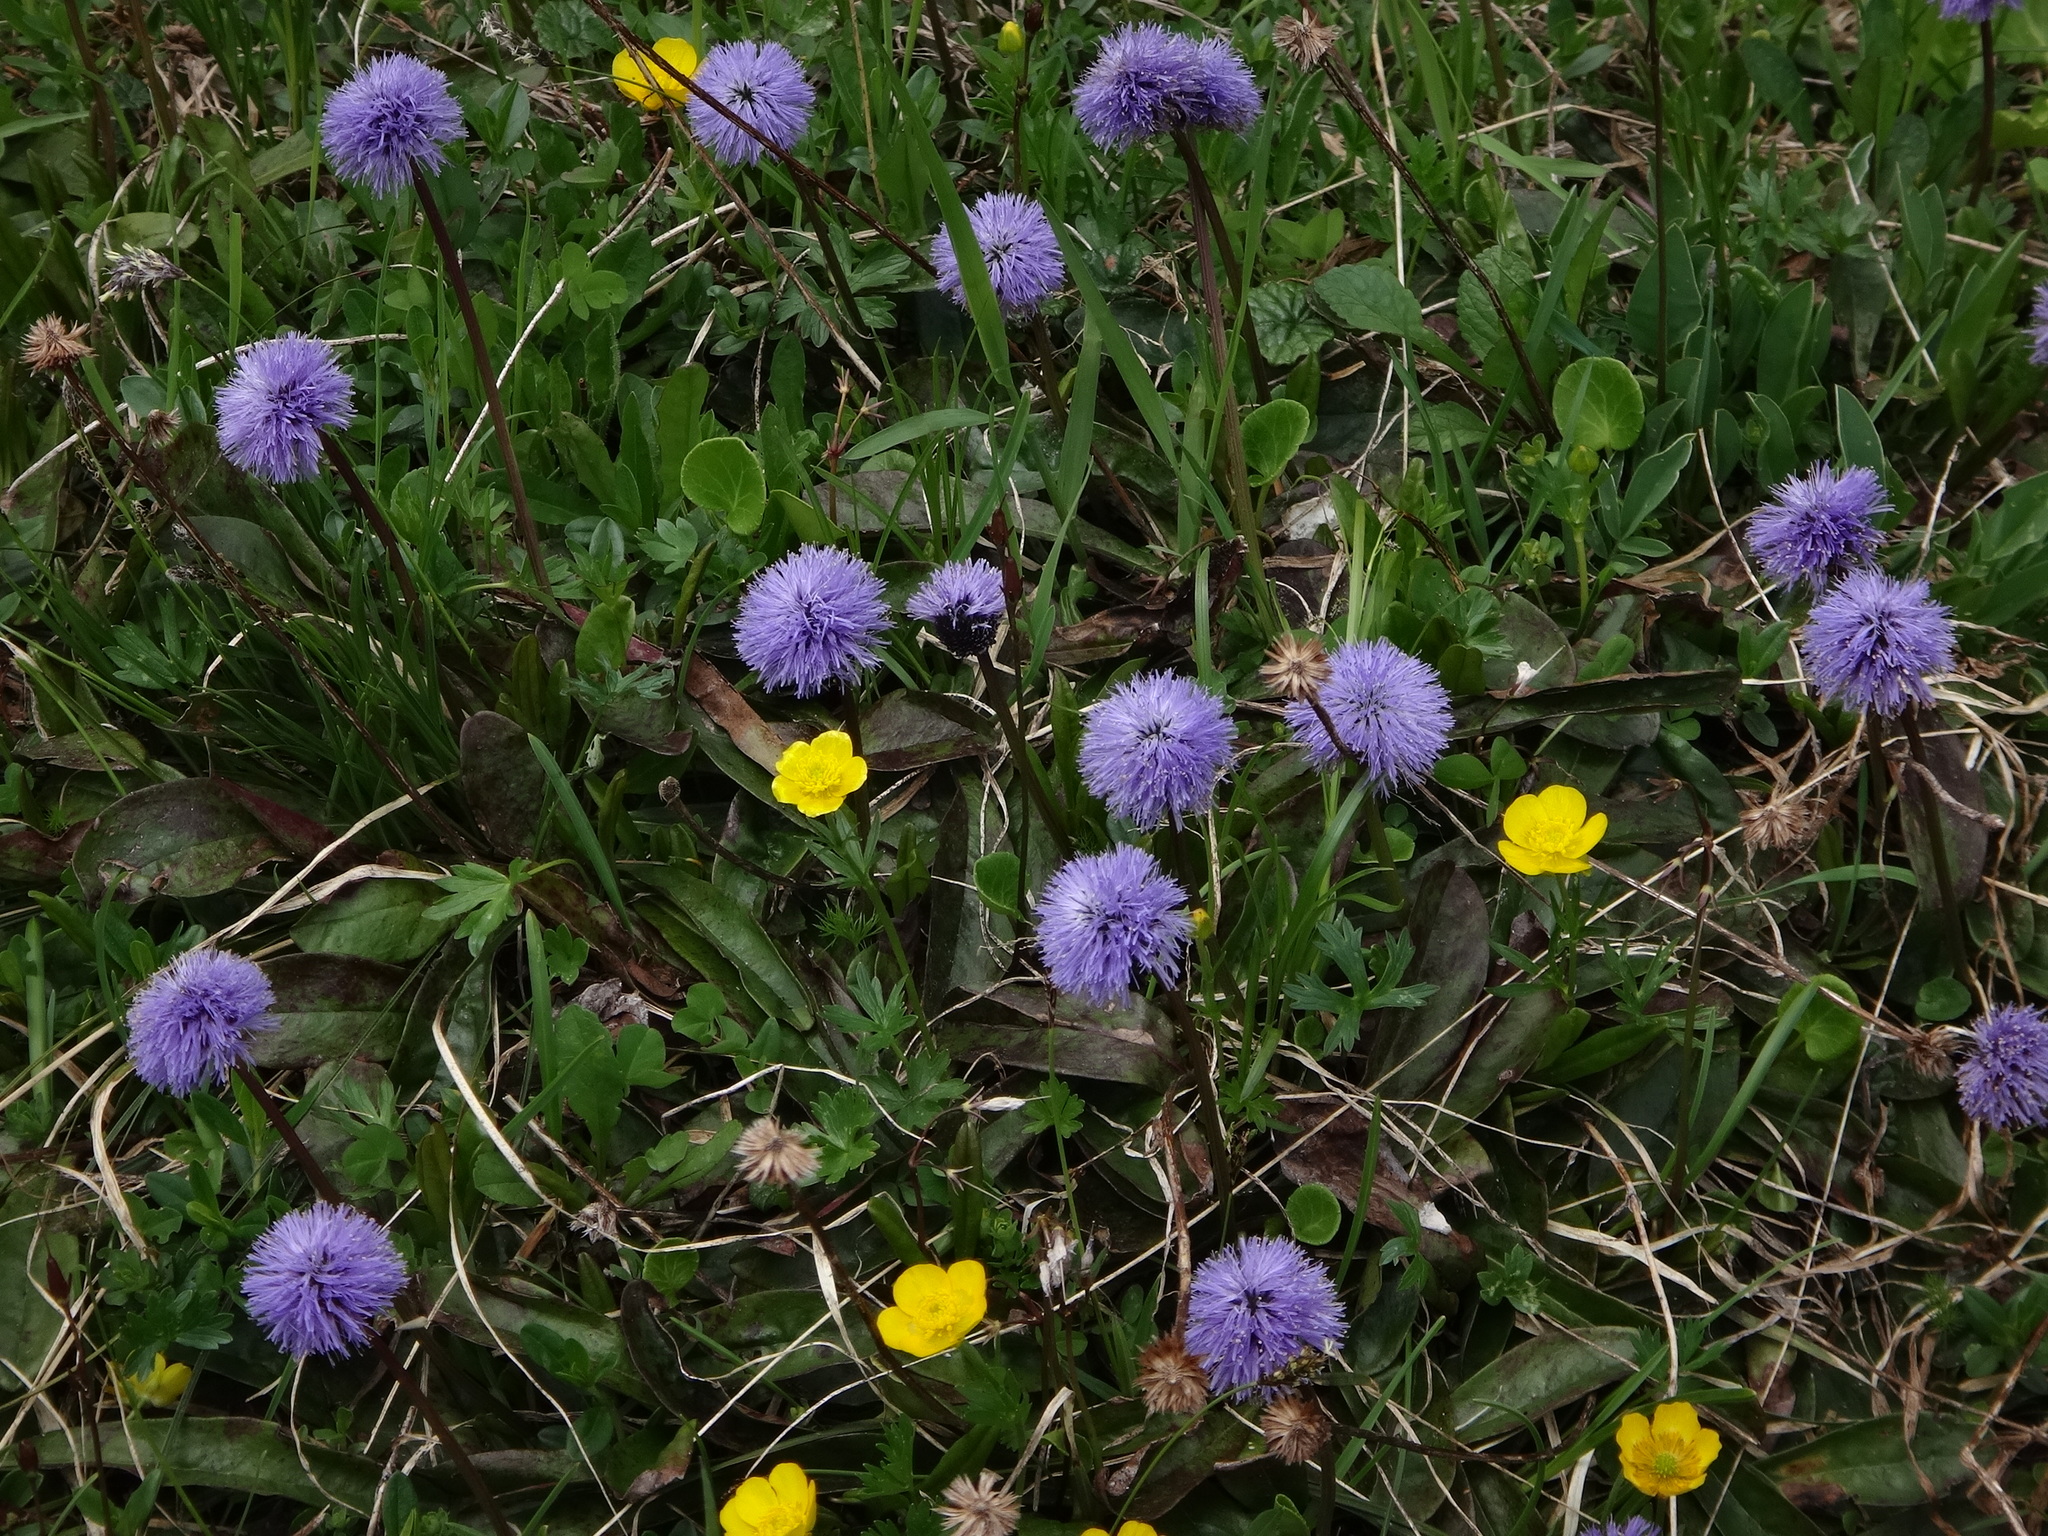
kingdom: Plantae
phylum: Tracheophyta
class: Magnoliopsida
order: Lamiales
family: Plantaginaceae
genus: Globularia
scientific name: Globularia nudicaulis
